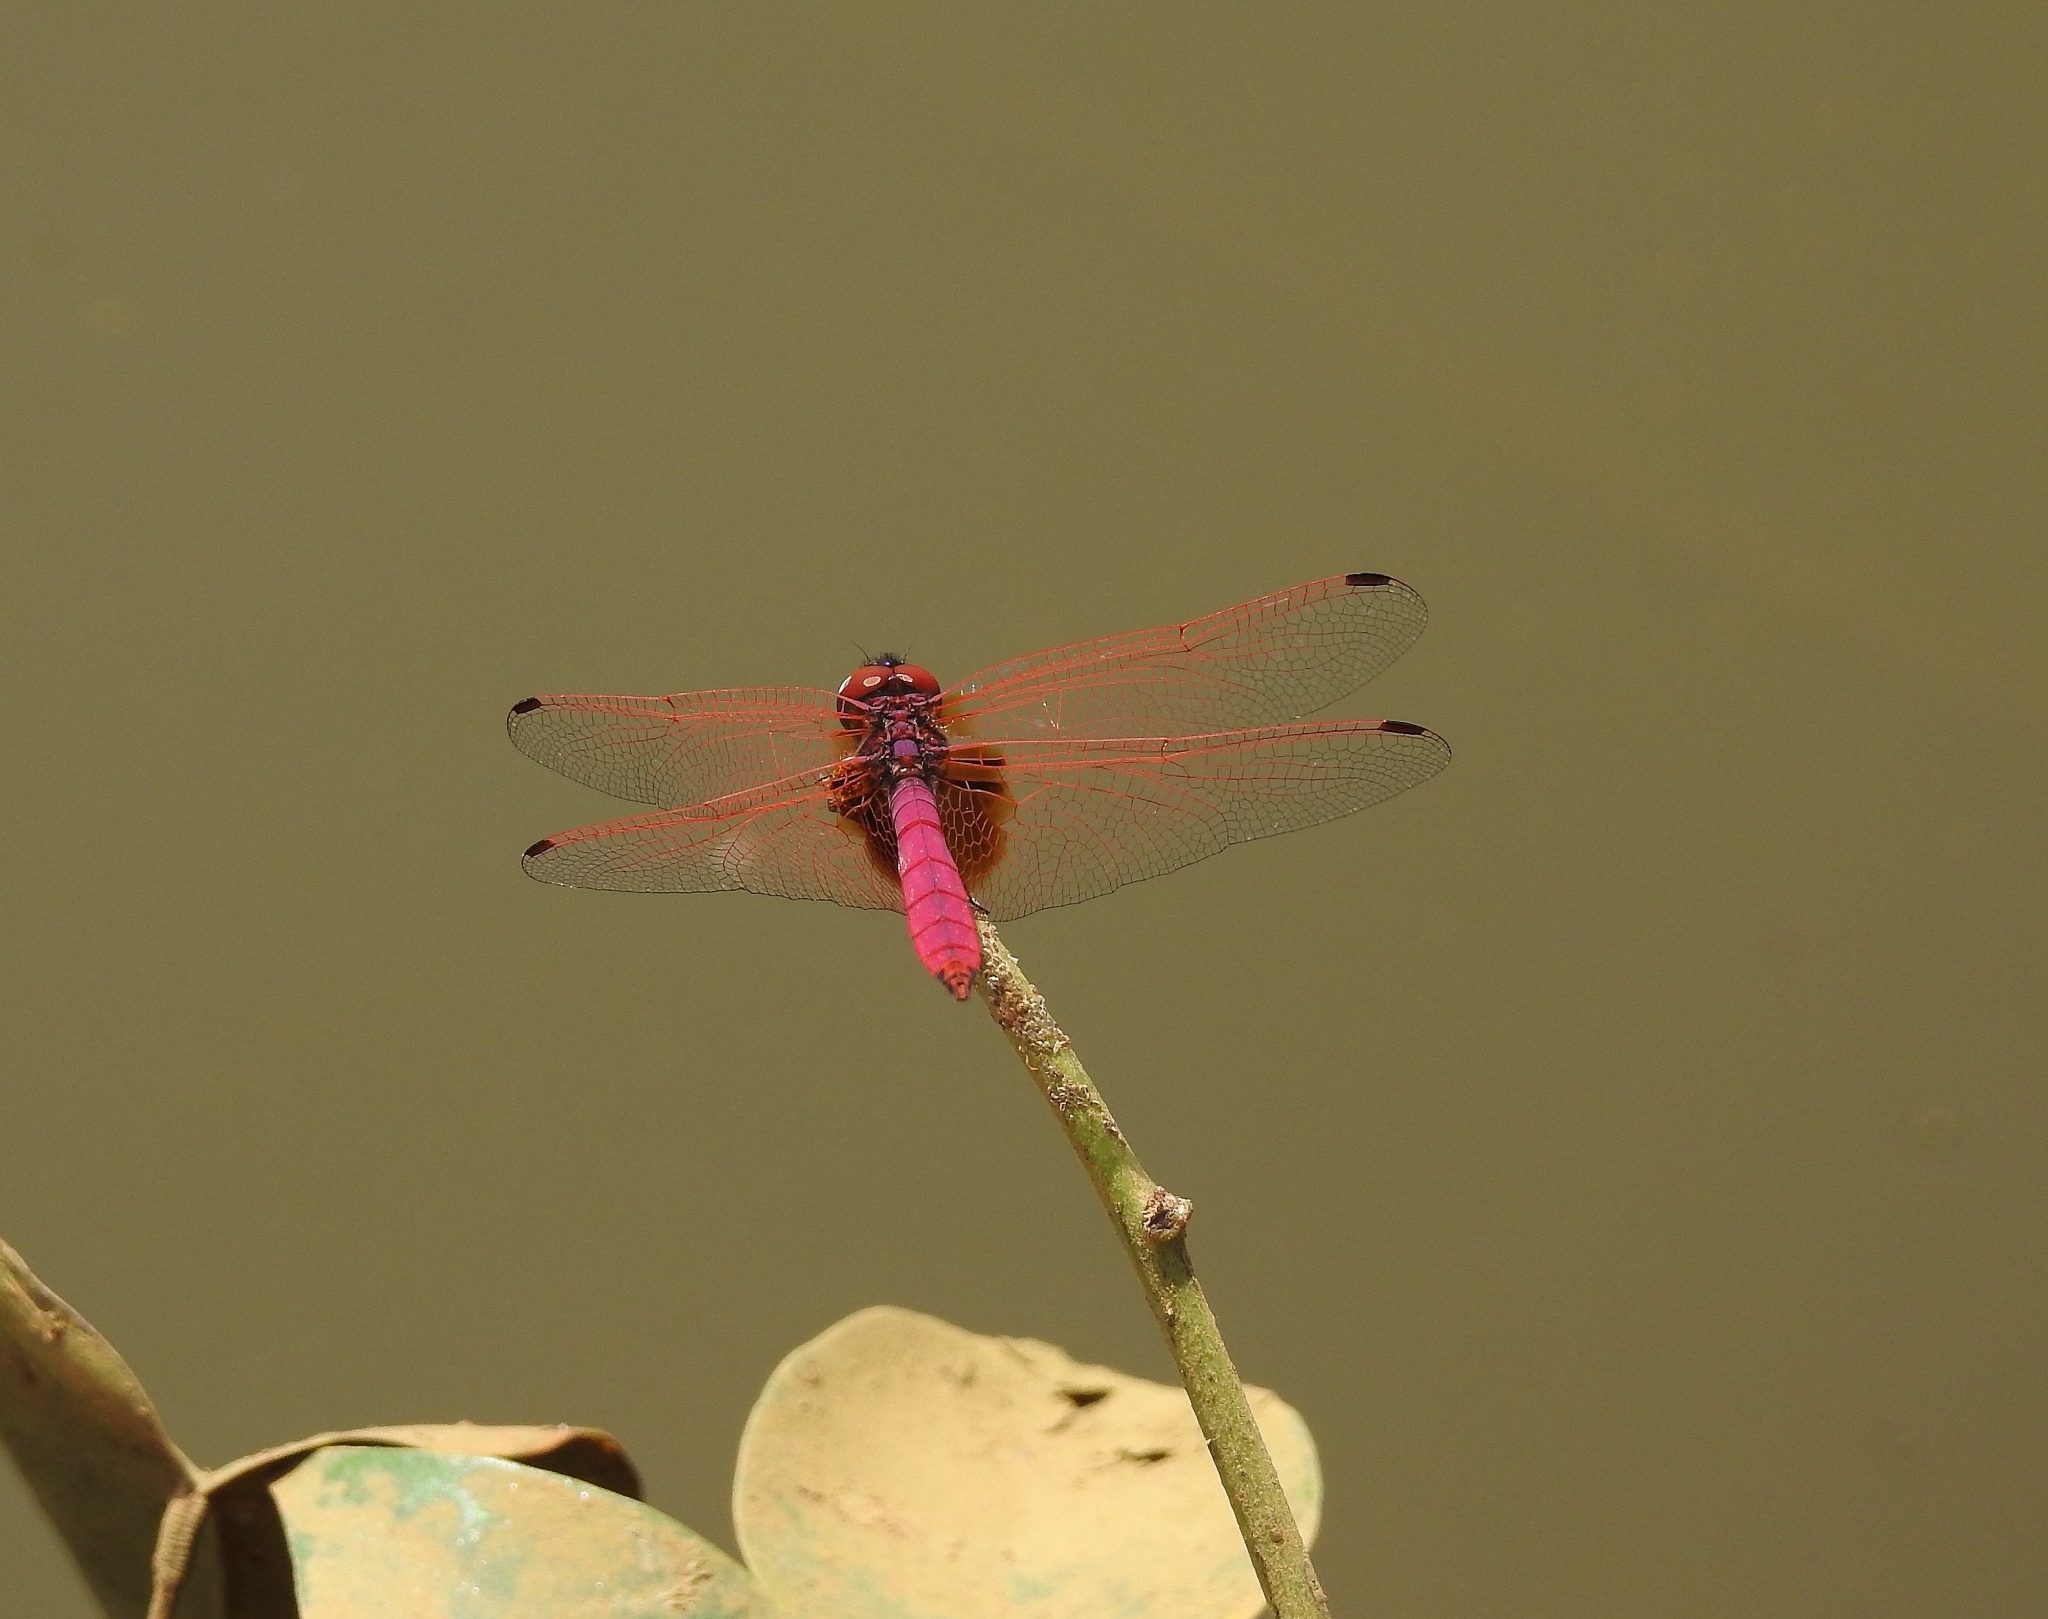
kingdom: Animalia
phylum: Arthropoda
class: Insecta
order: Odonata
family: Libellulidae
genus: Trithemis
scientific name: Trithemis aurora
